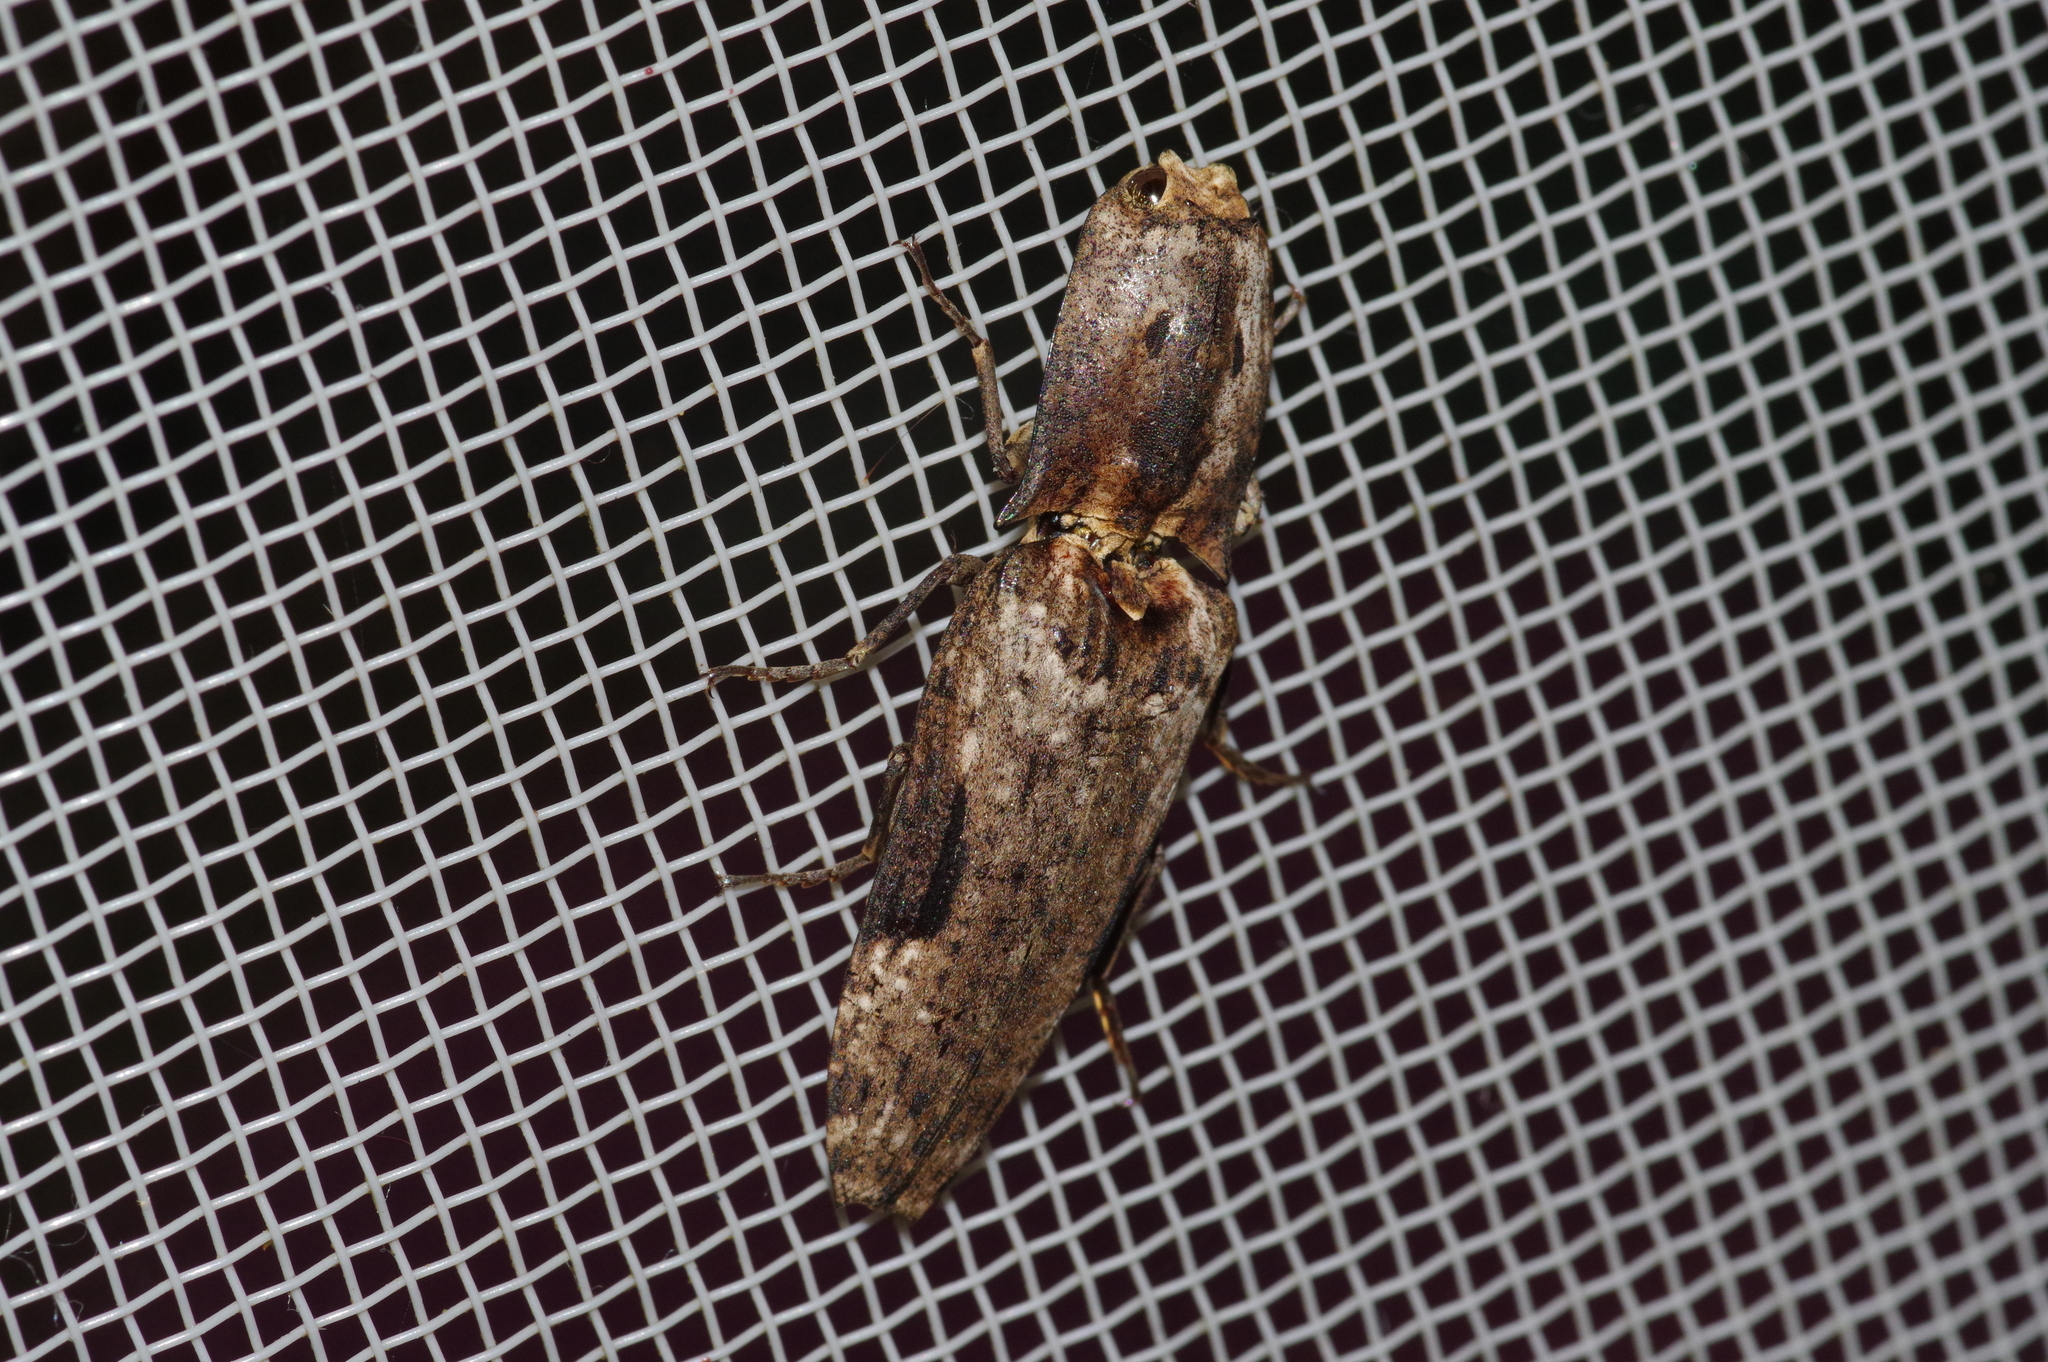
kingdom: Animalia
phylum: Arthropoda
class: Insecta
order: Coleoptera
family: Elateridae
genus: Cryptalaus
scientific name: Cryptalaus larvatus
